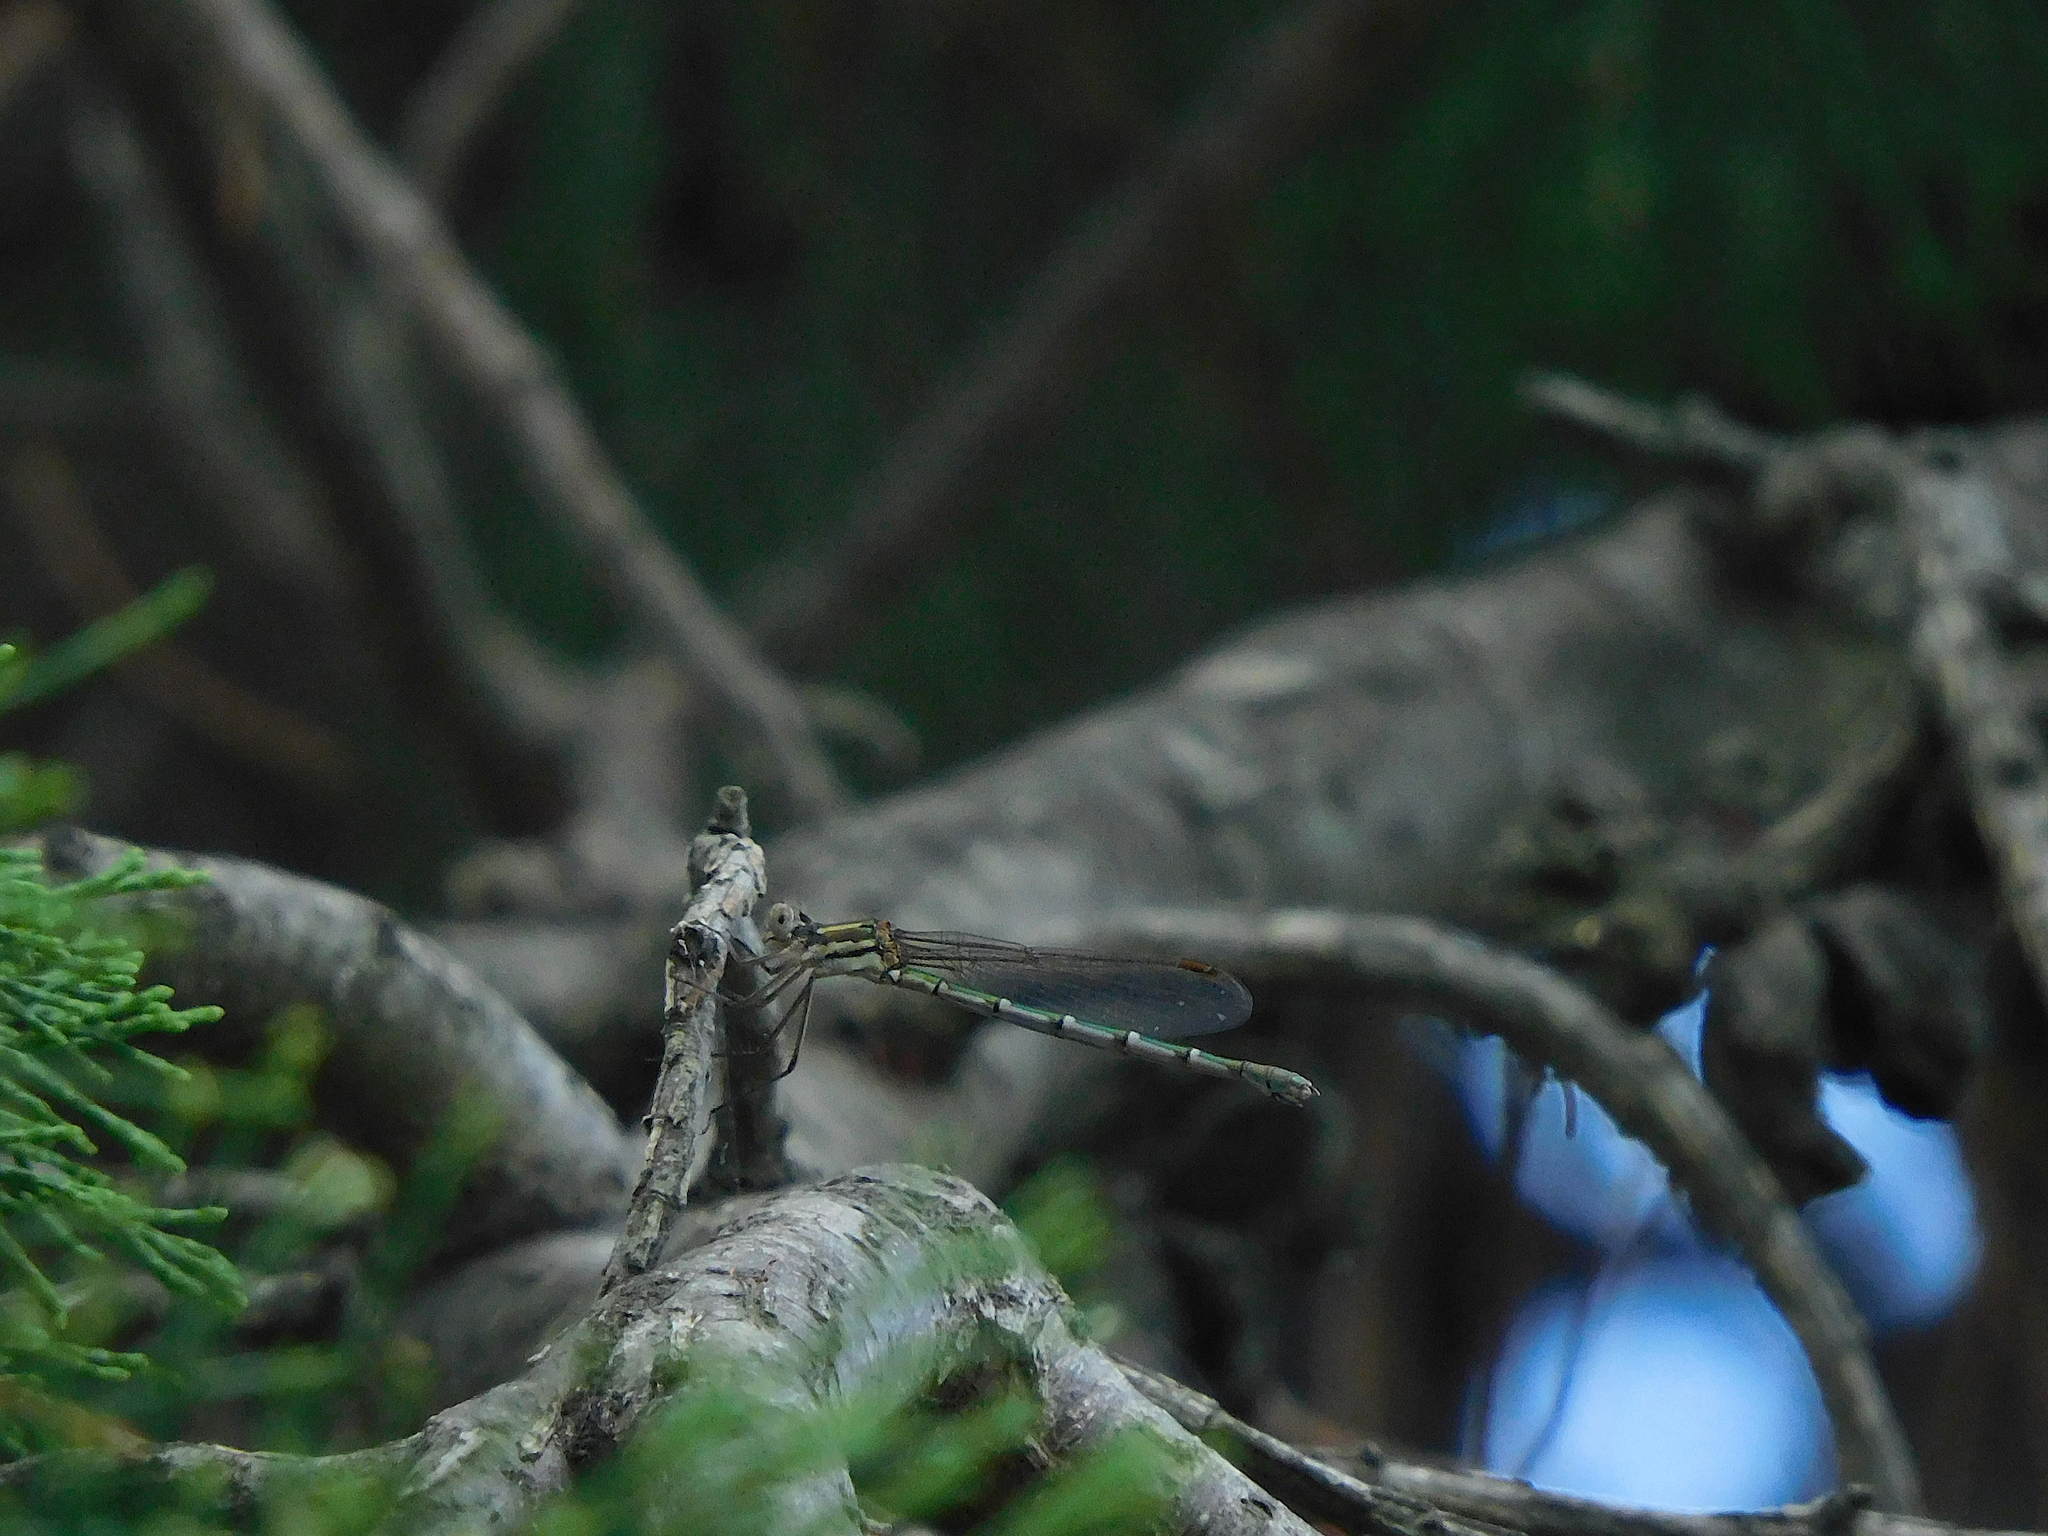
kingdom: Animalia
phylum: Arthropoda
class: Insecta
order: Odonata
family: Lestidae
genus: Austrolestes
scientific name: Austrolestes annulosus
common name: Blue ringtail
